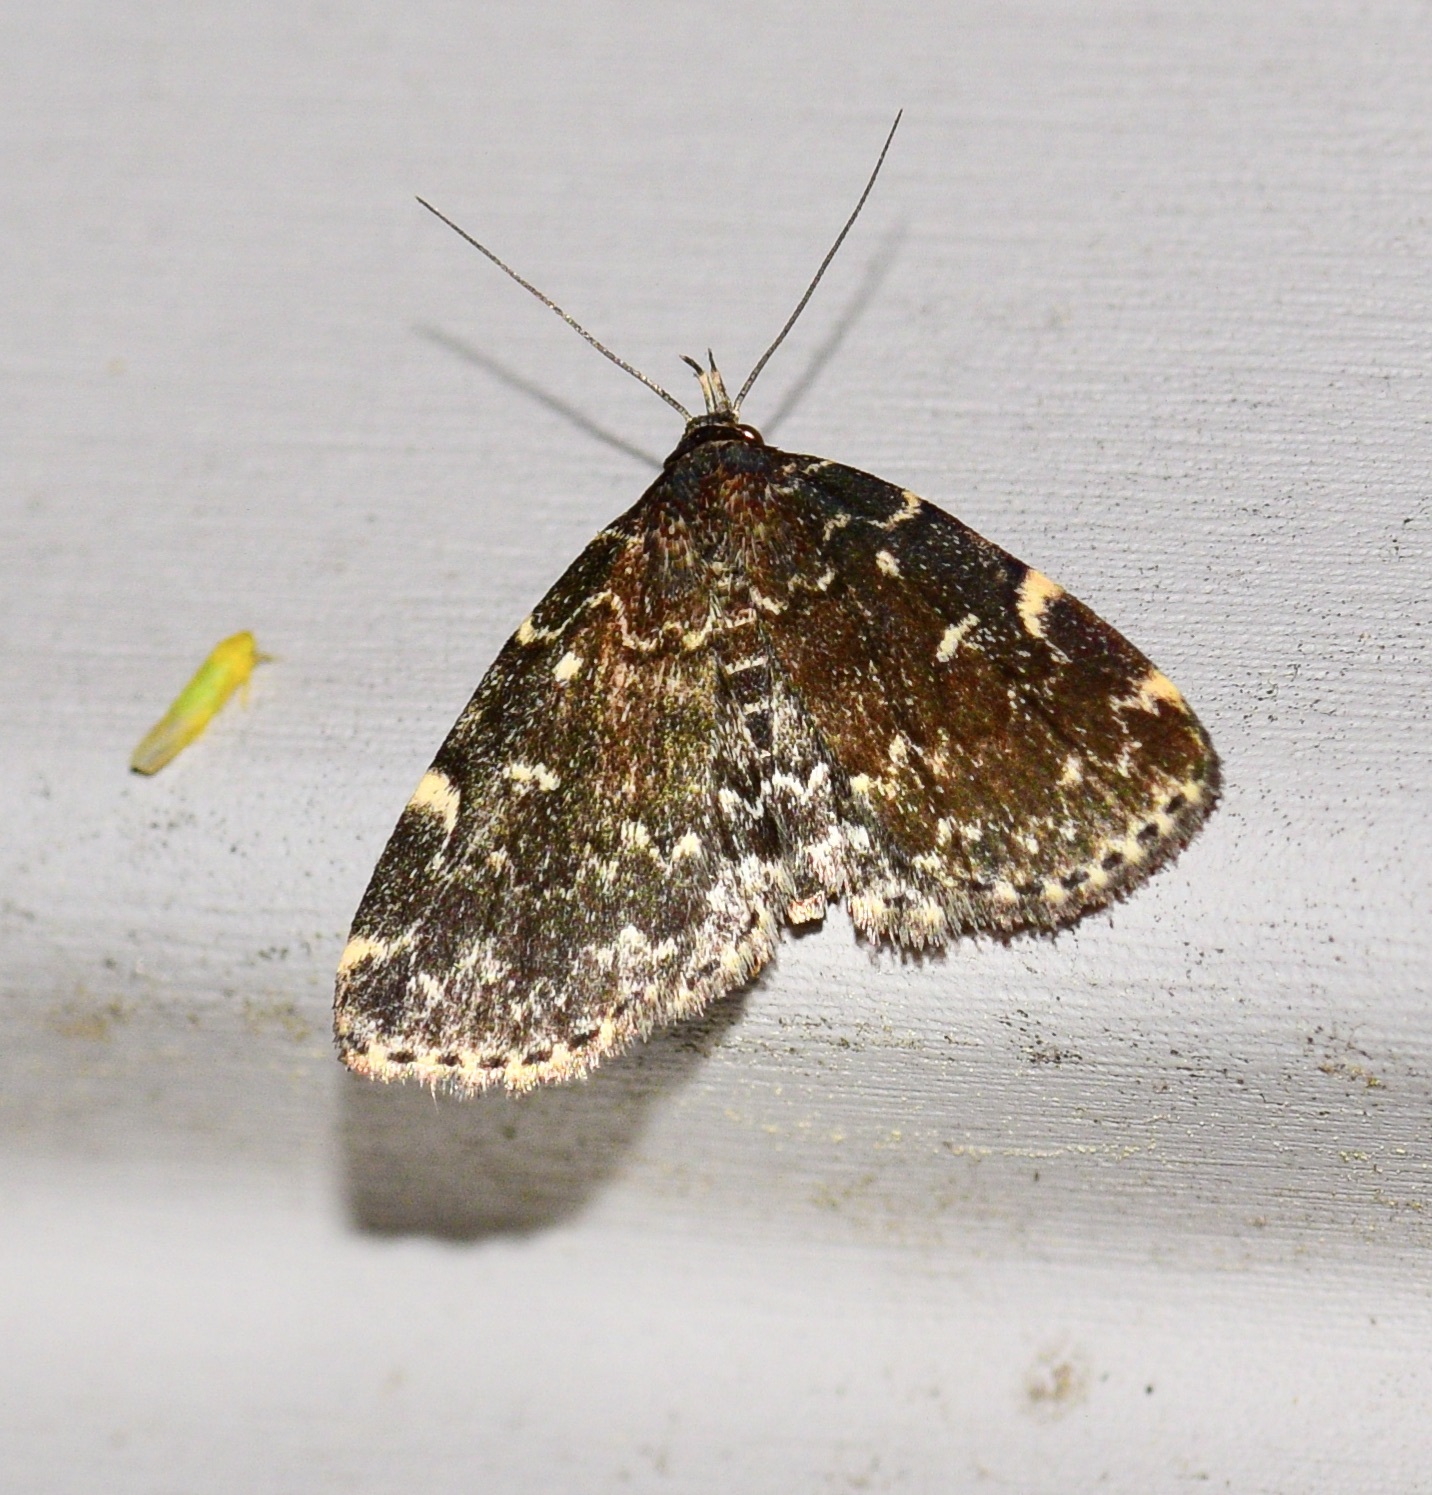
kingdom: Animalia
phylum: Arthropoda
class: Insecta
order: Lepidoptera
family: Erebidae
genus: Idia
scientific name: Idia scobialis
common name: Smoky idia moth
